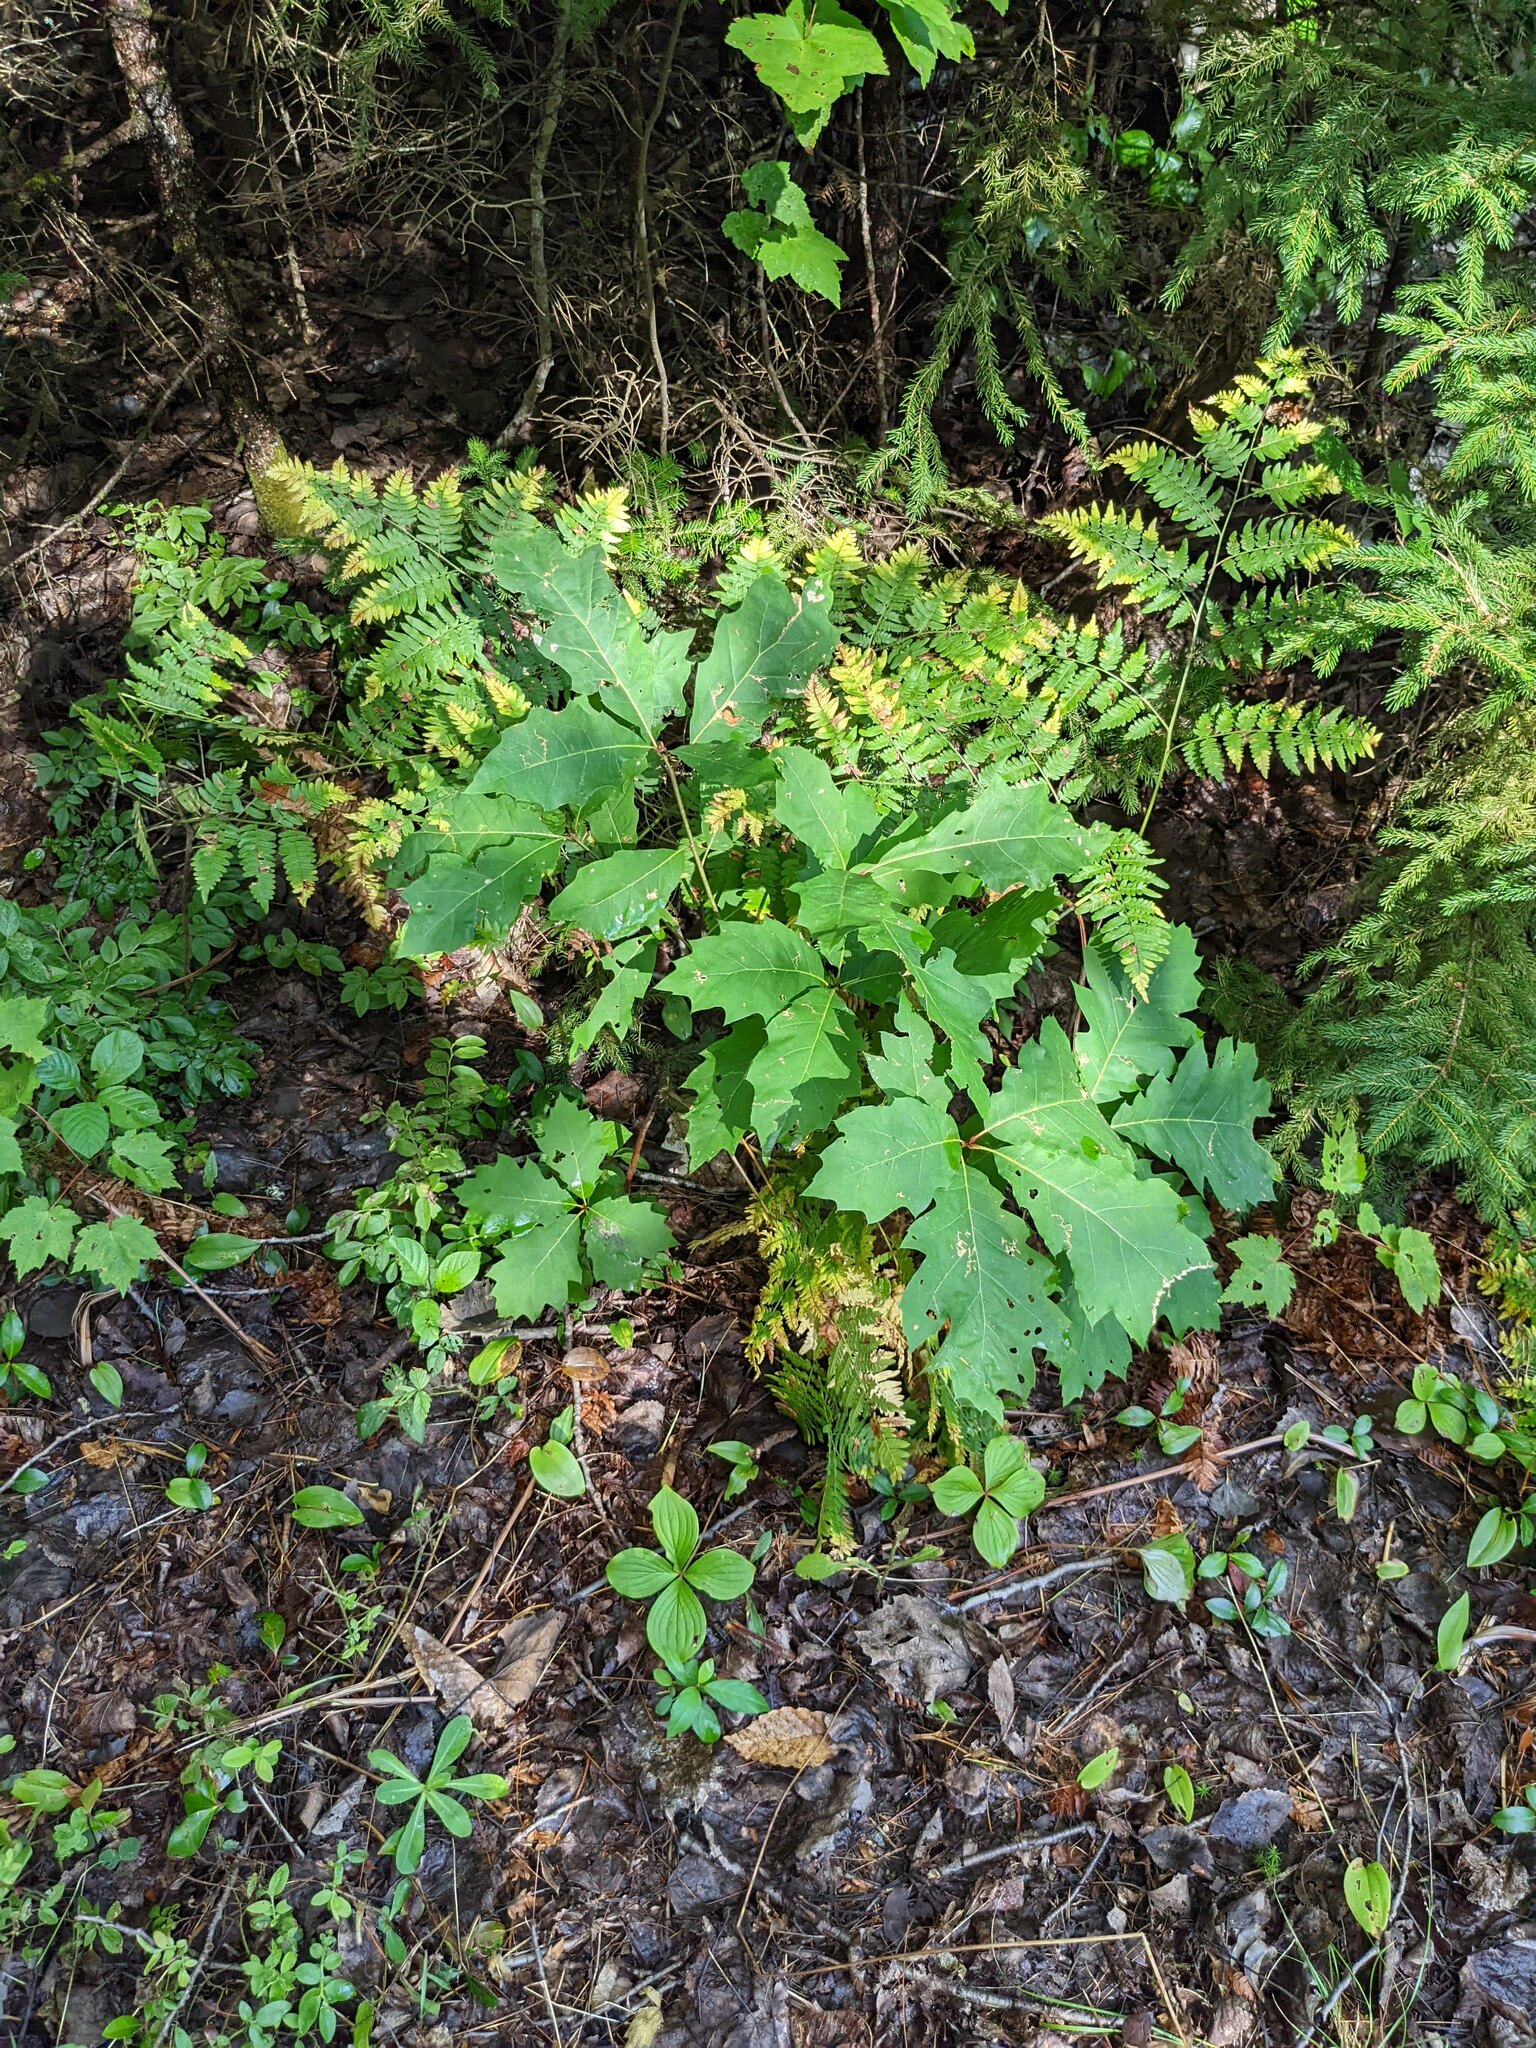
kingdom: Plantae
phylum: Tracheophyta
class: Magnoliopsida
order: Fagales
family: Fagaceae
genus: Quercus
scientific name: Quercus rubra
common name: Red oak
